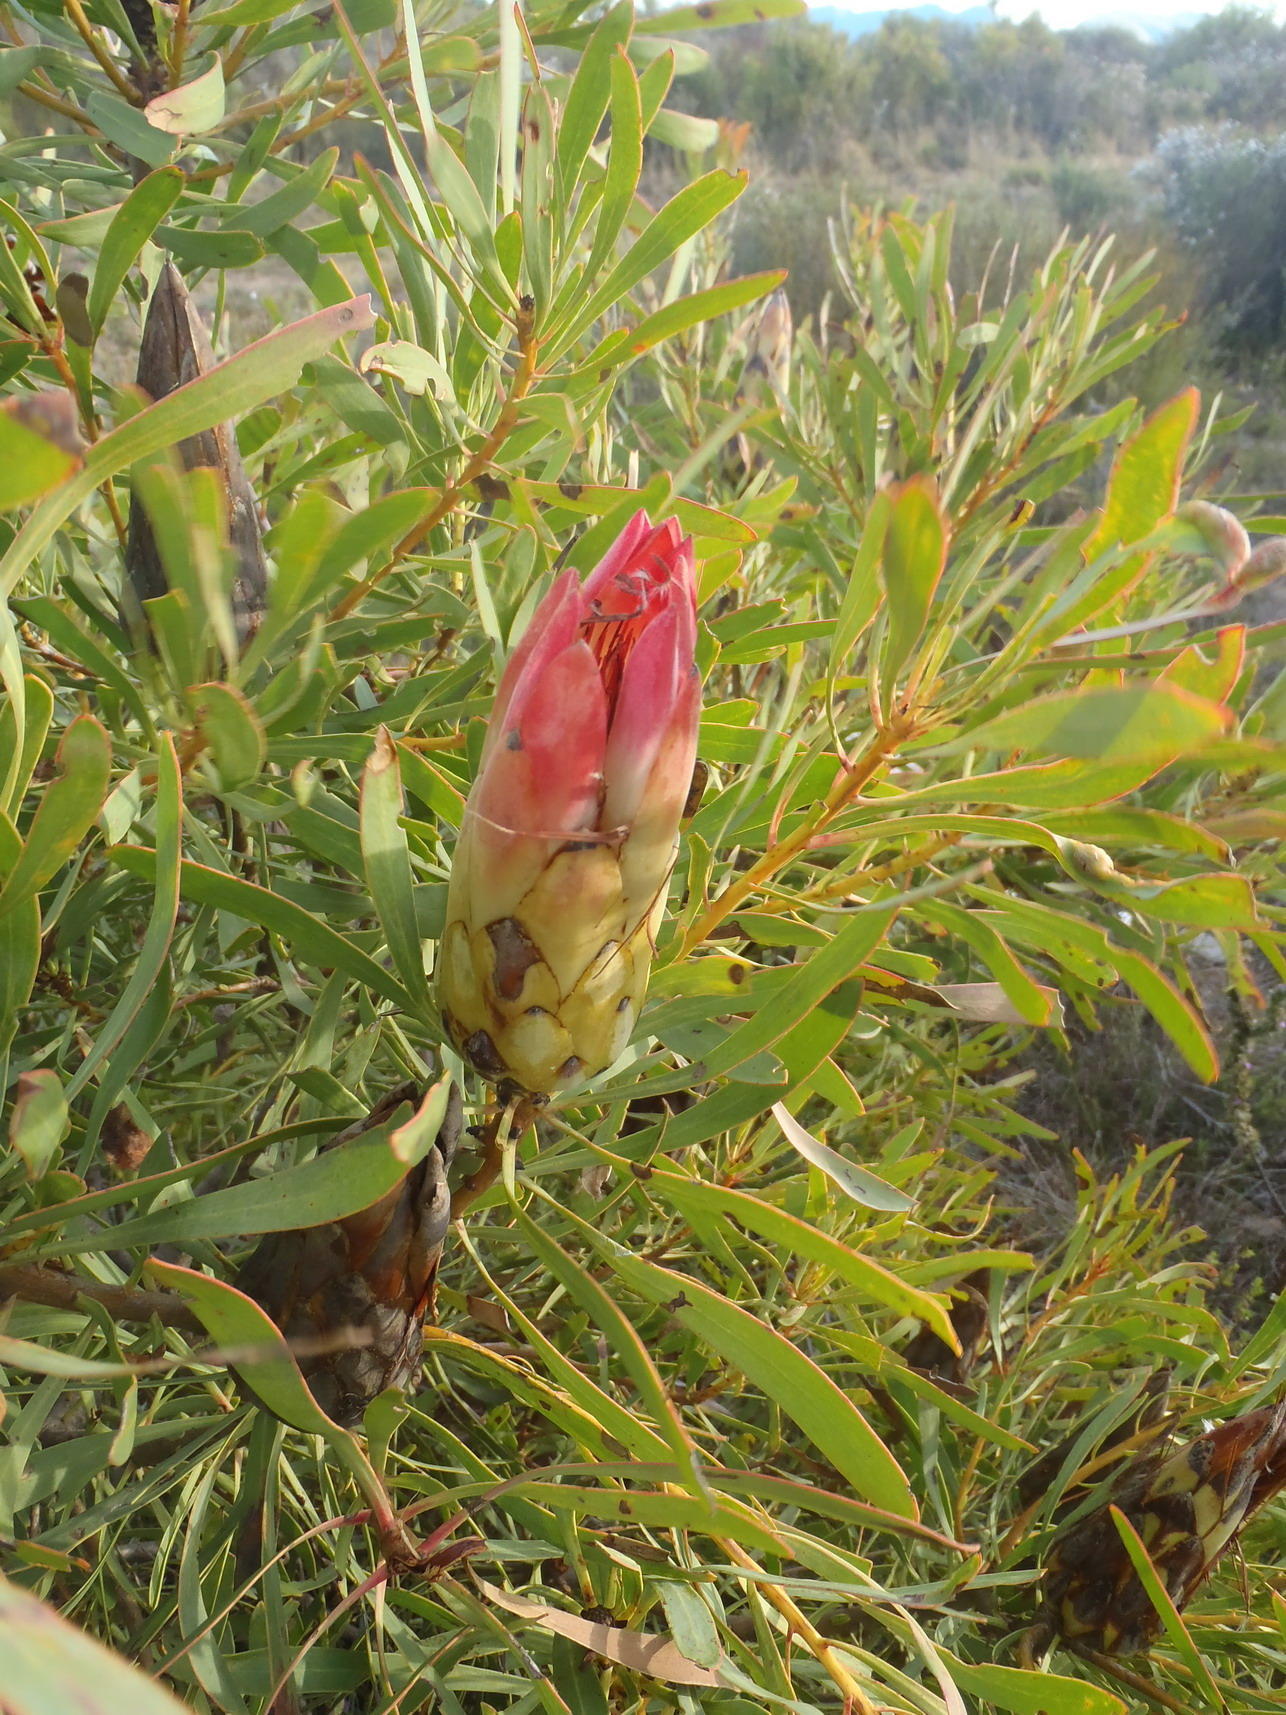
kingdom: Plantae
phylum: Tracheophyta
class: Magnoliopsida
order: Proteales
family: Proteaceae
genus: Protea
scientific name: Protea repens
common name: Sugarbush
